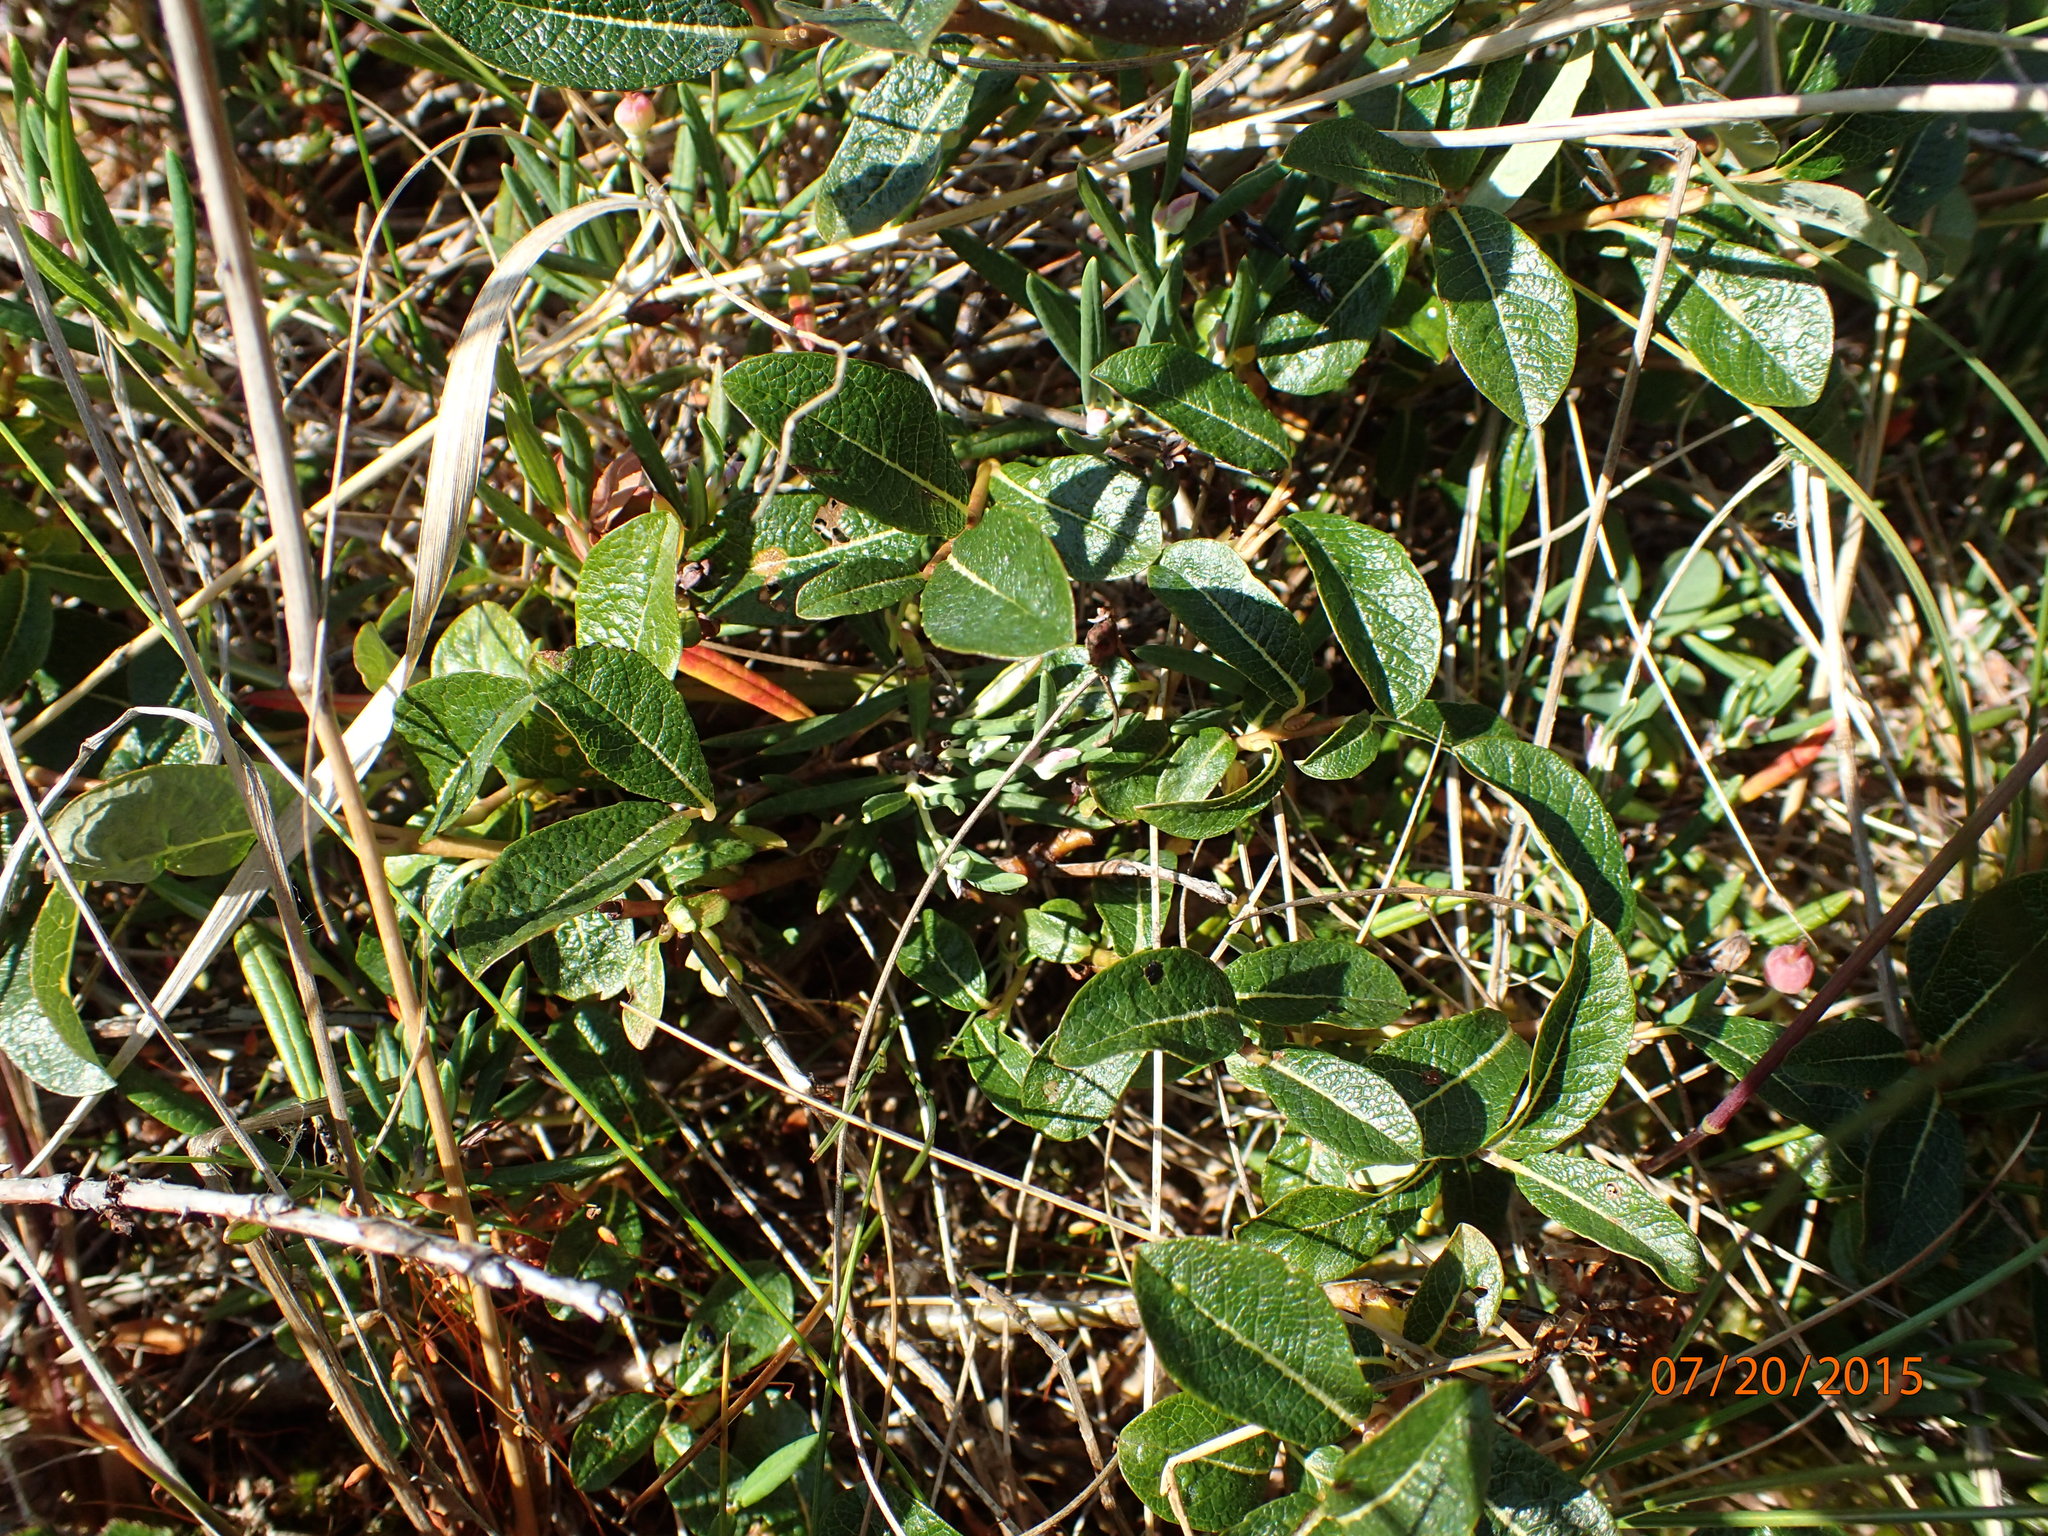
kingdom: Plantae
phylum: Tracheophyta
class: Magnoliopsida
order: Malpighiales
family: Salicaceae
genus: Salix
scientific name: Salix fuscescens
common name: Brownish willow
